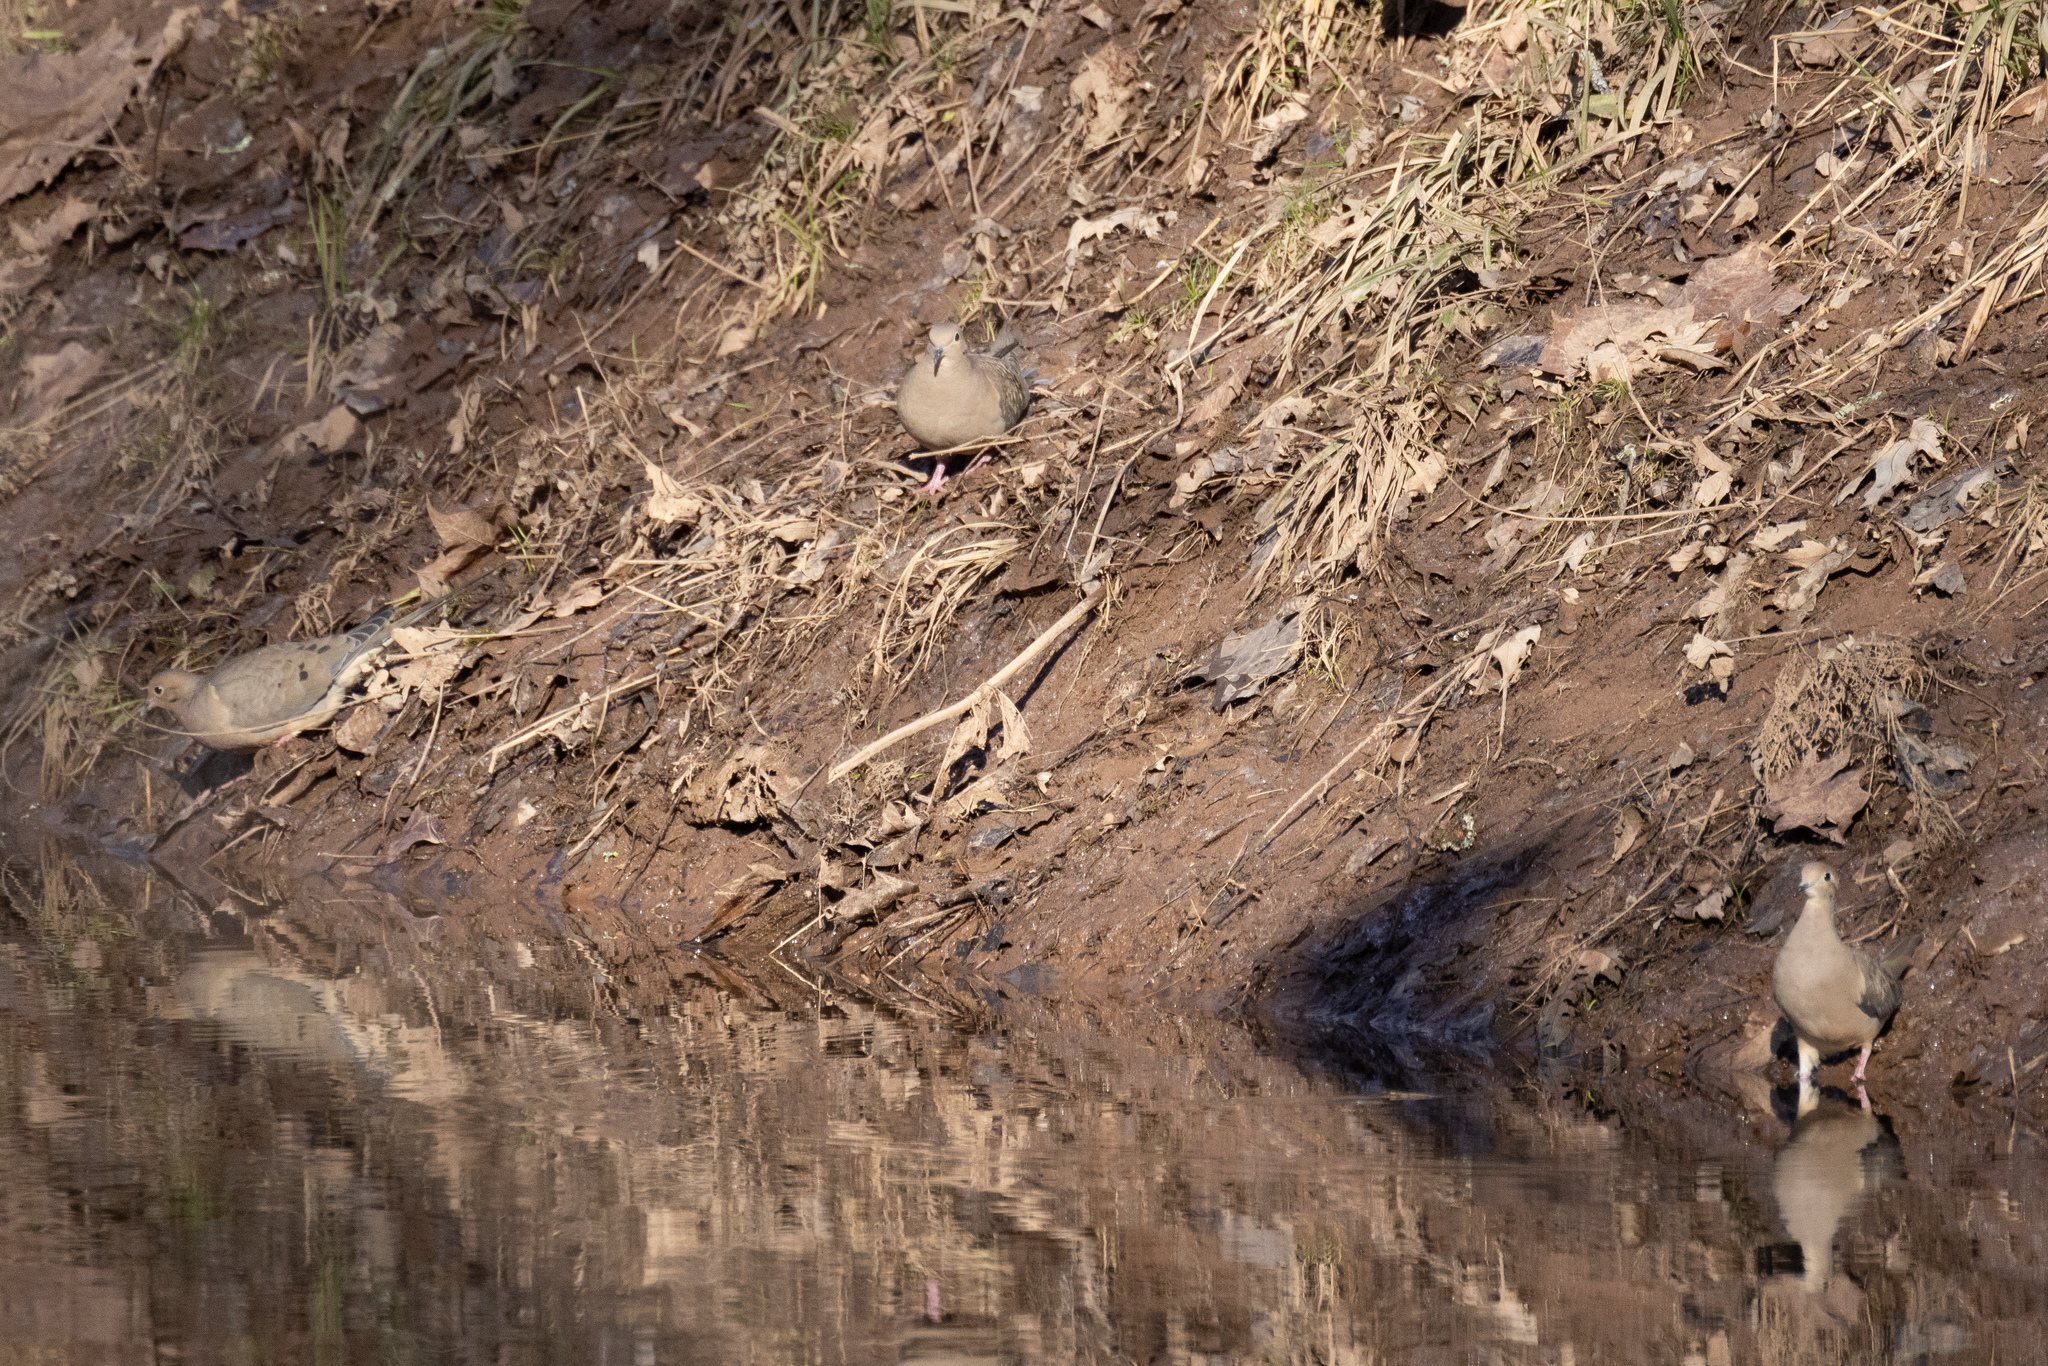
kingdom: Animalia
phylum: Chordata
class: Aves
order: Columbiformes
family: Columbidae
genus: Zenaida
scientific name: Zenaida macroura
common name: Mourning dove
